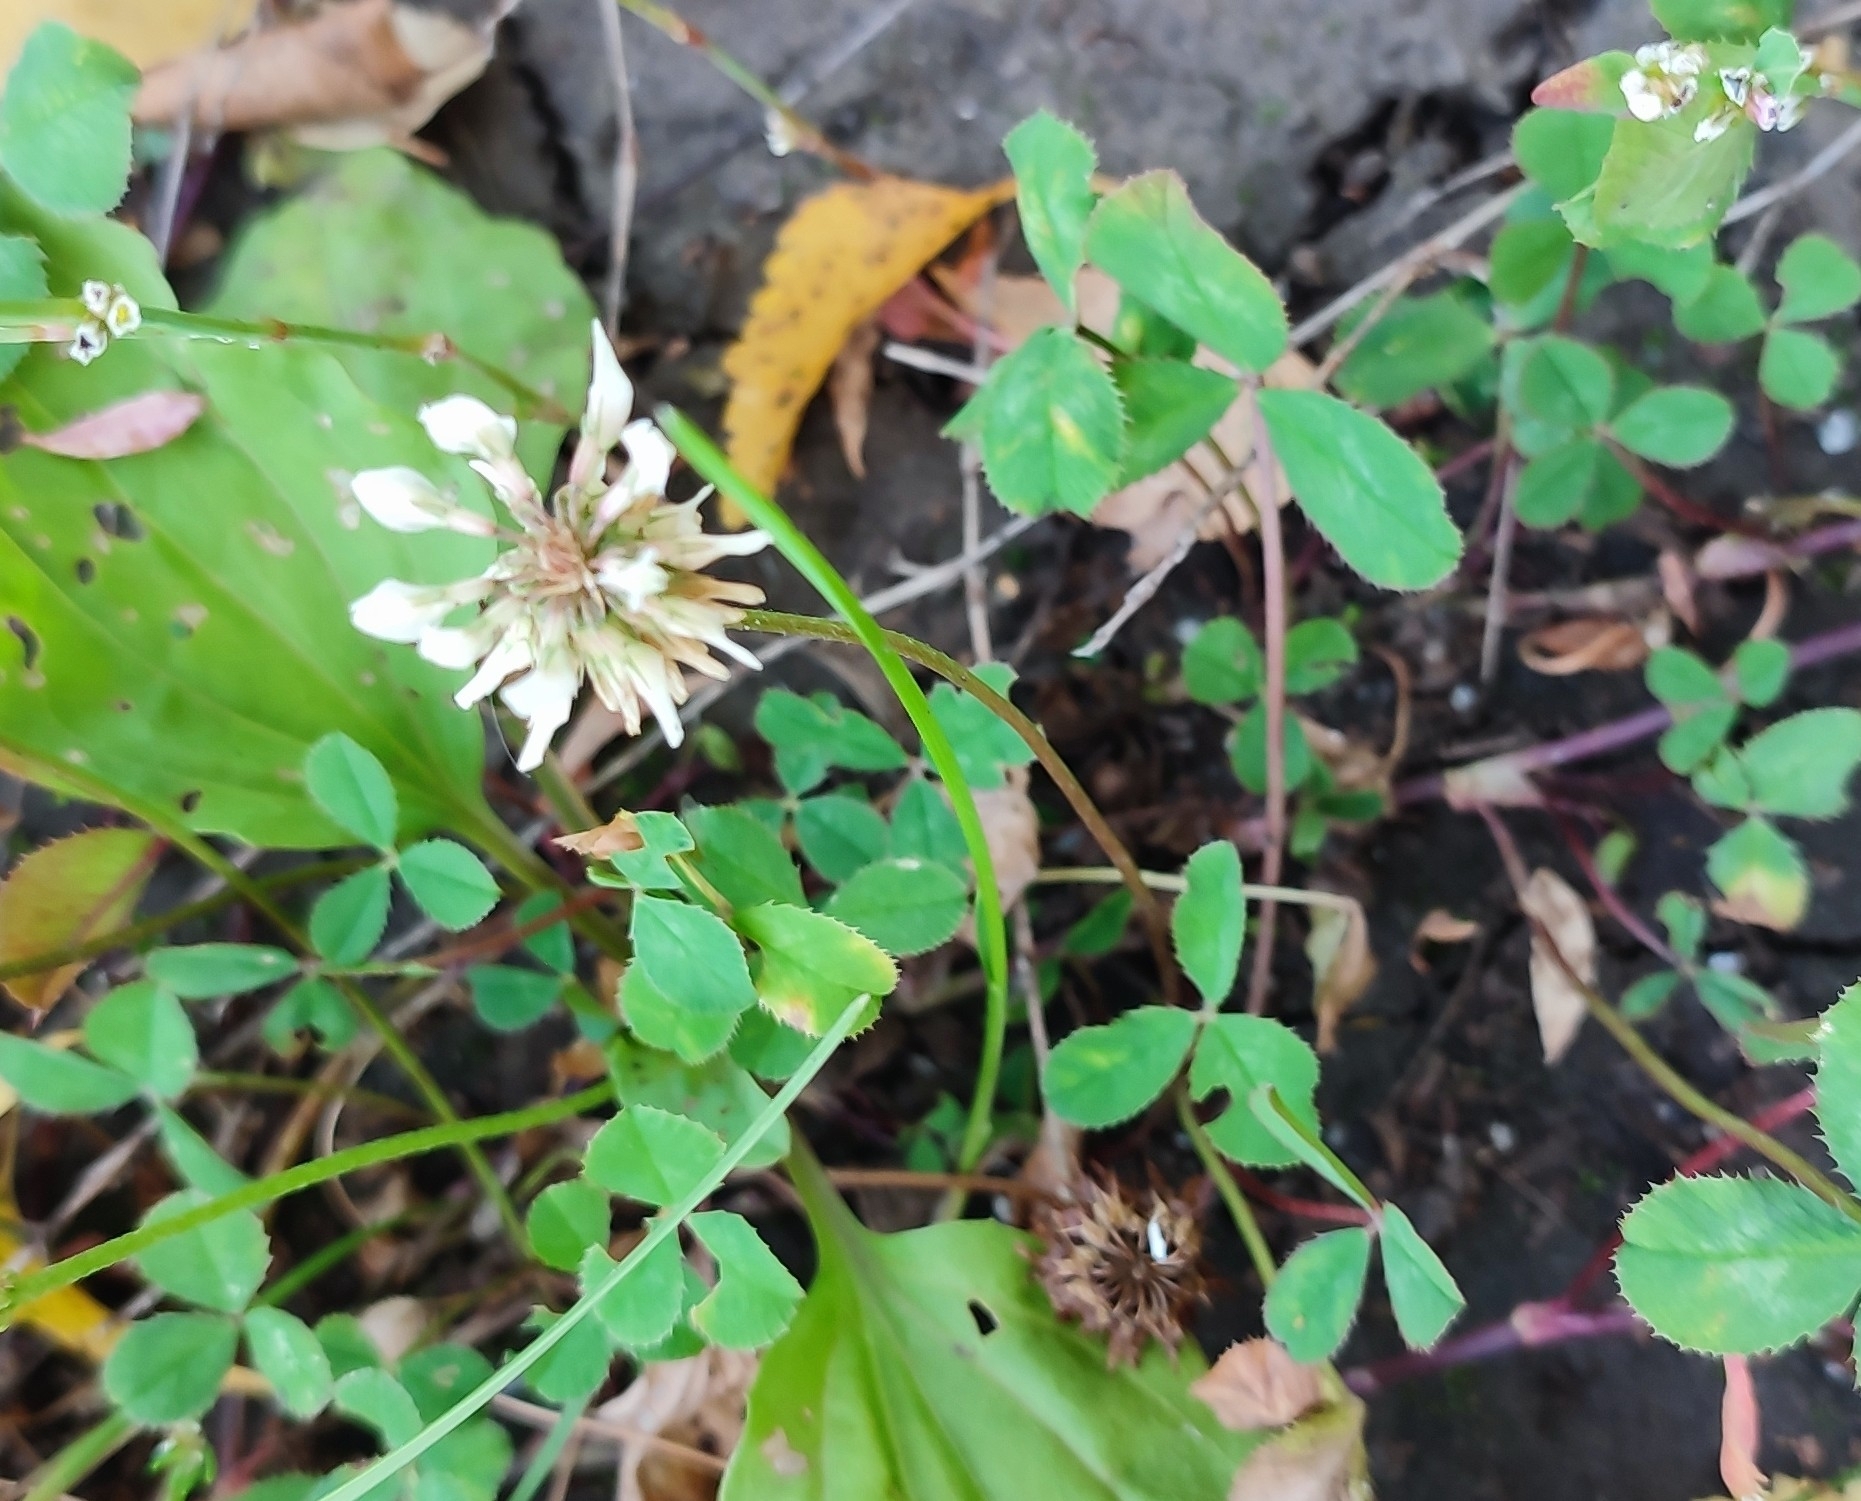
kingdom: Plantae
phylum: Tracheophyta
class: Magnoliopsida
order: Fabales
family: Fabaceae
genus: Trifolium
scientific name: Trifolium repens
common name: White clover
